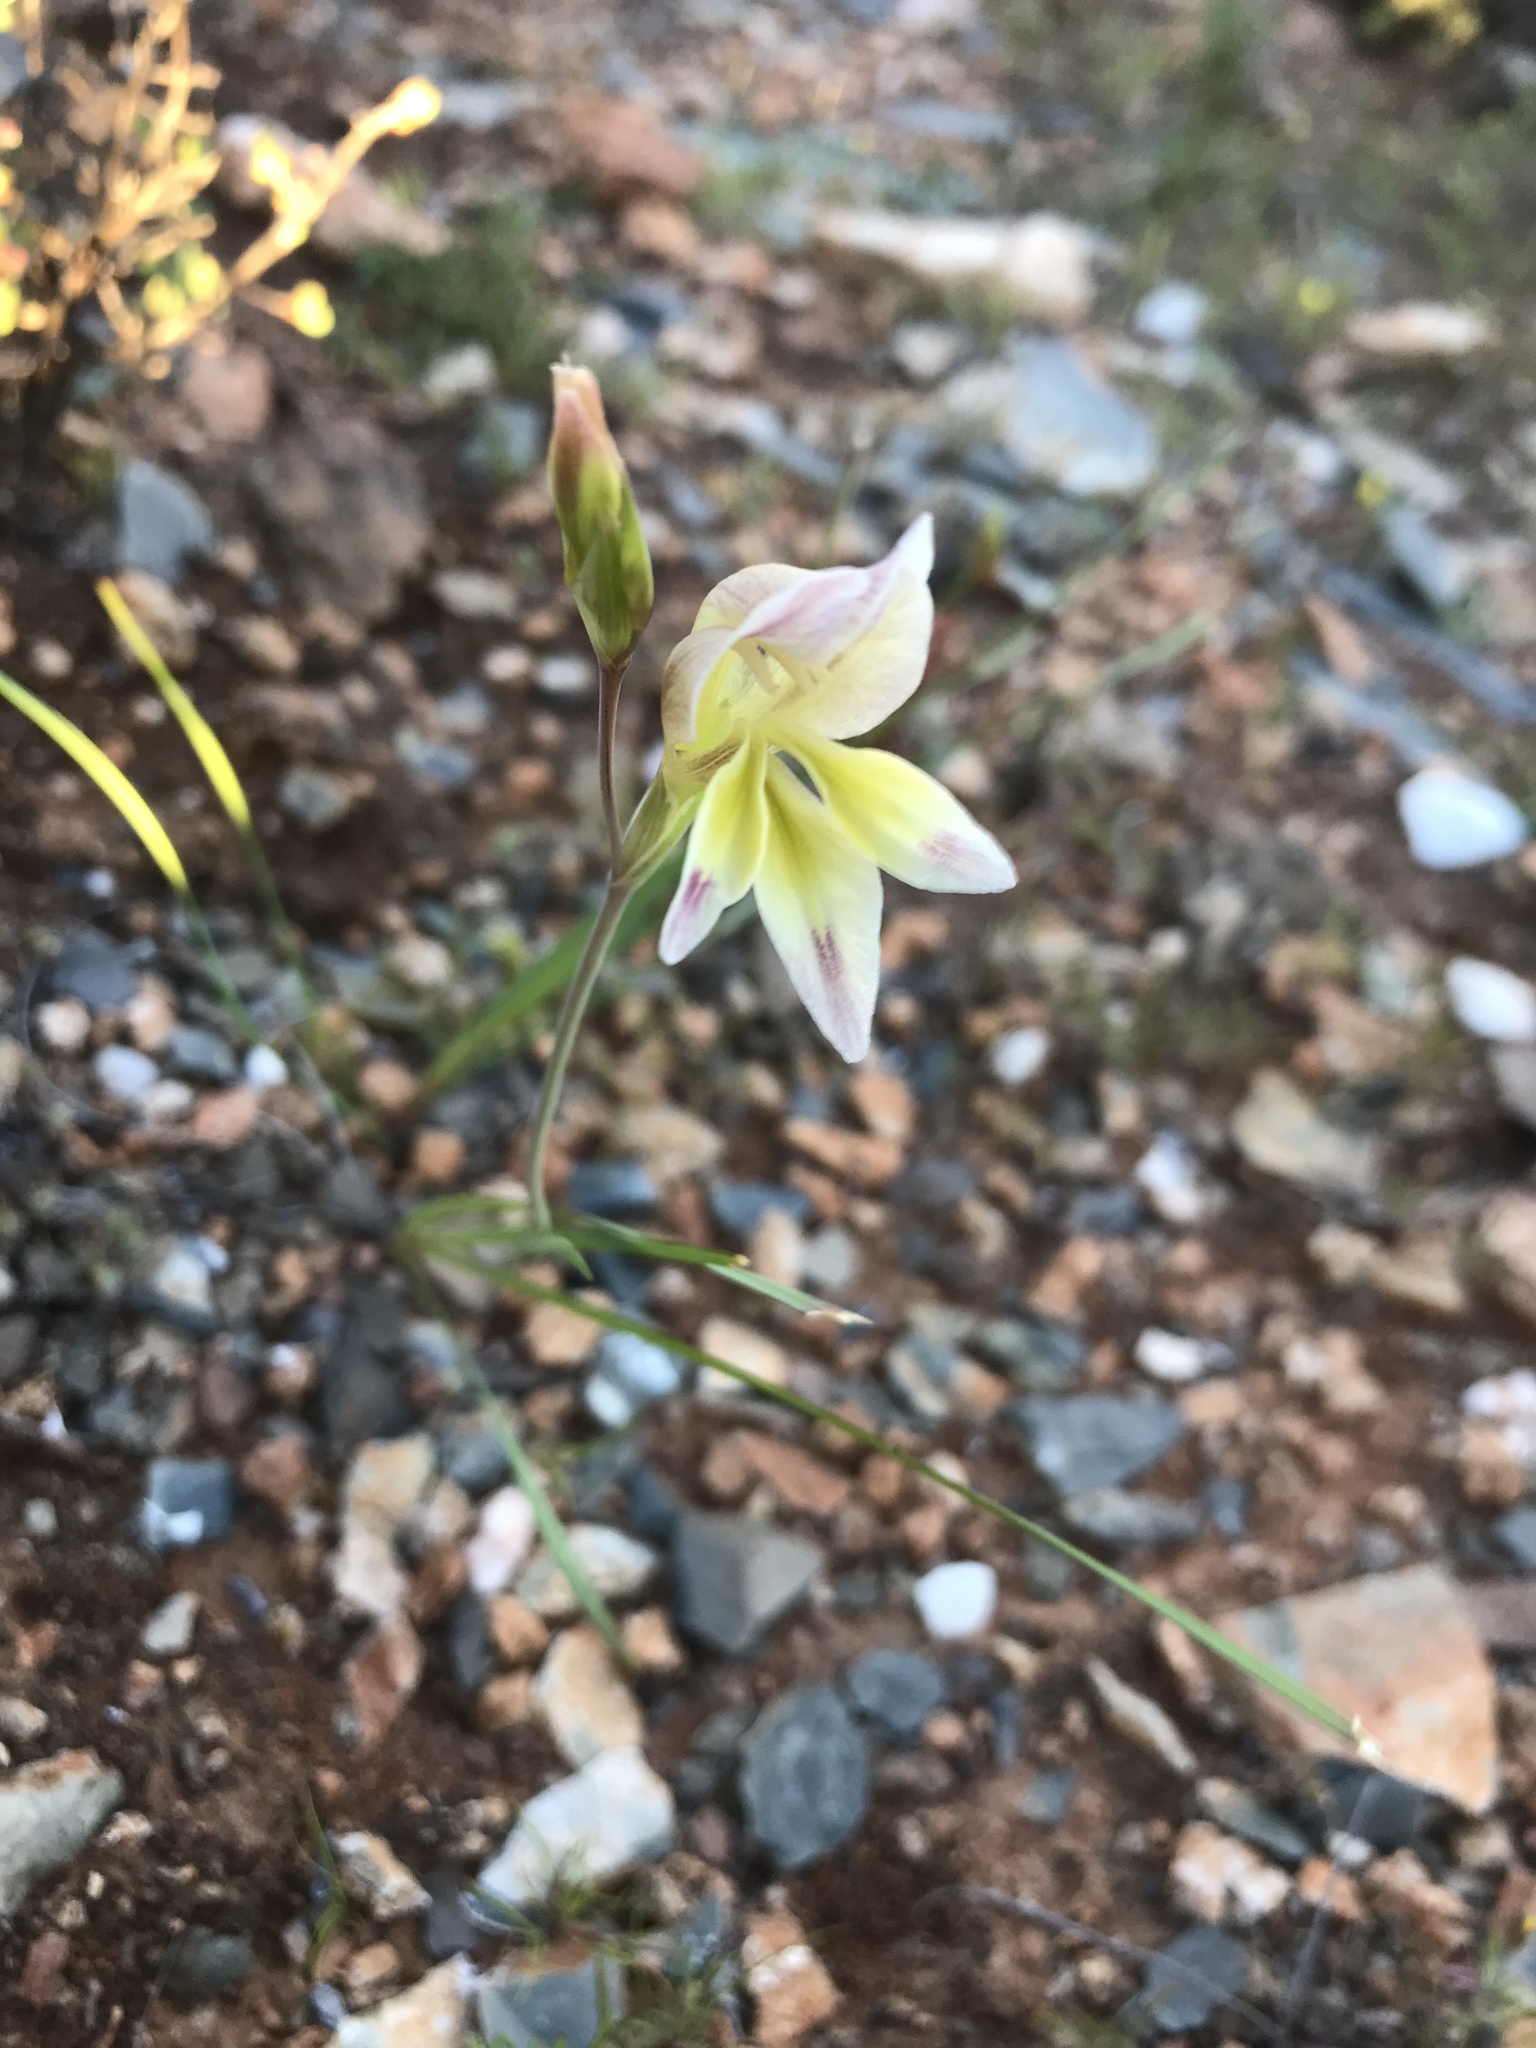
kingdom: Plantae
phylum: Tracheophyta
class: Liliopsida
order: Asparagales
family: Iridaceae
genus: Gladiolus
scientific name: Gladiolus scullyi
